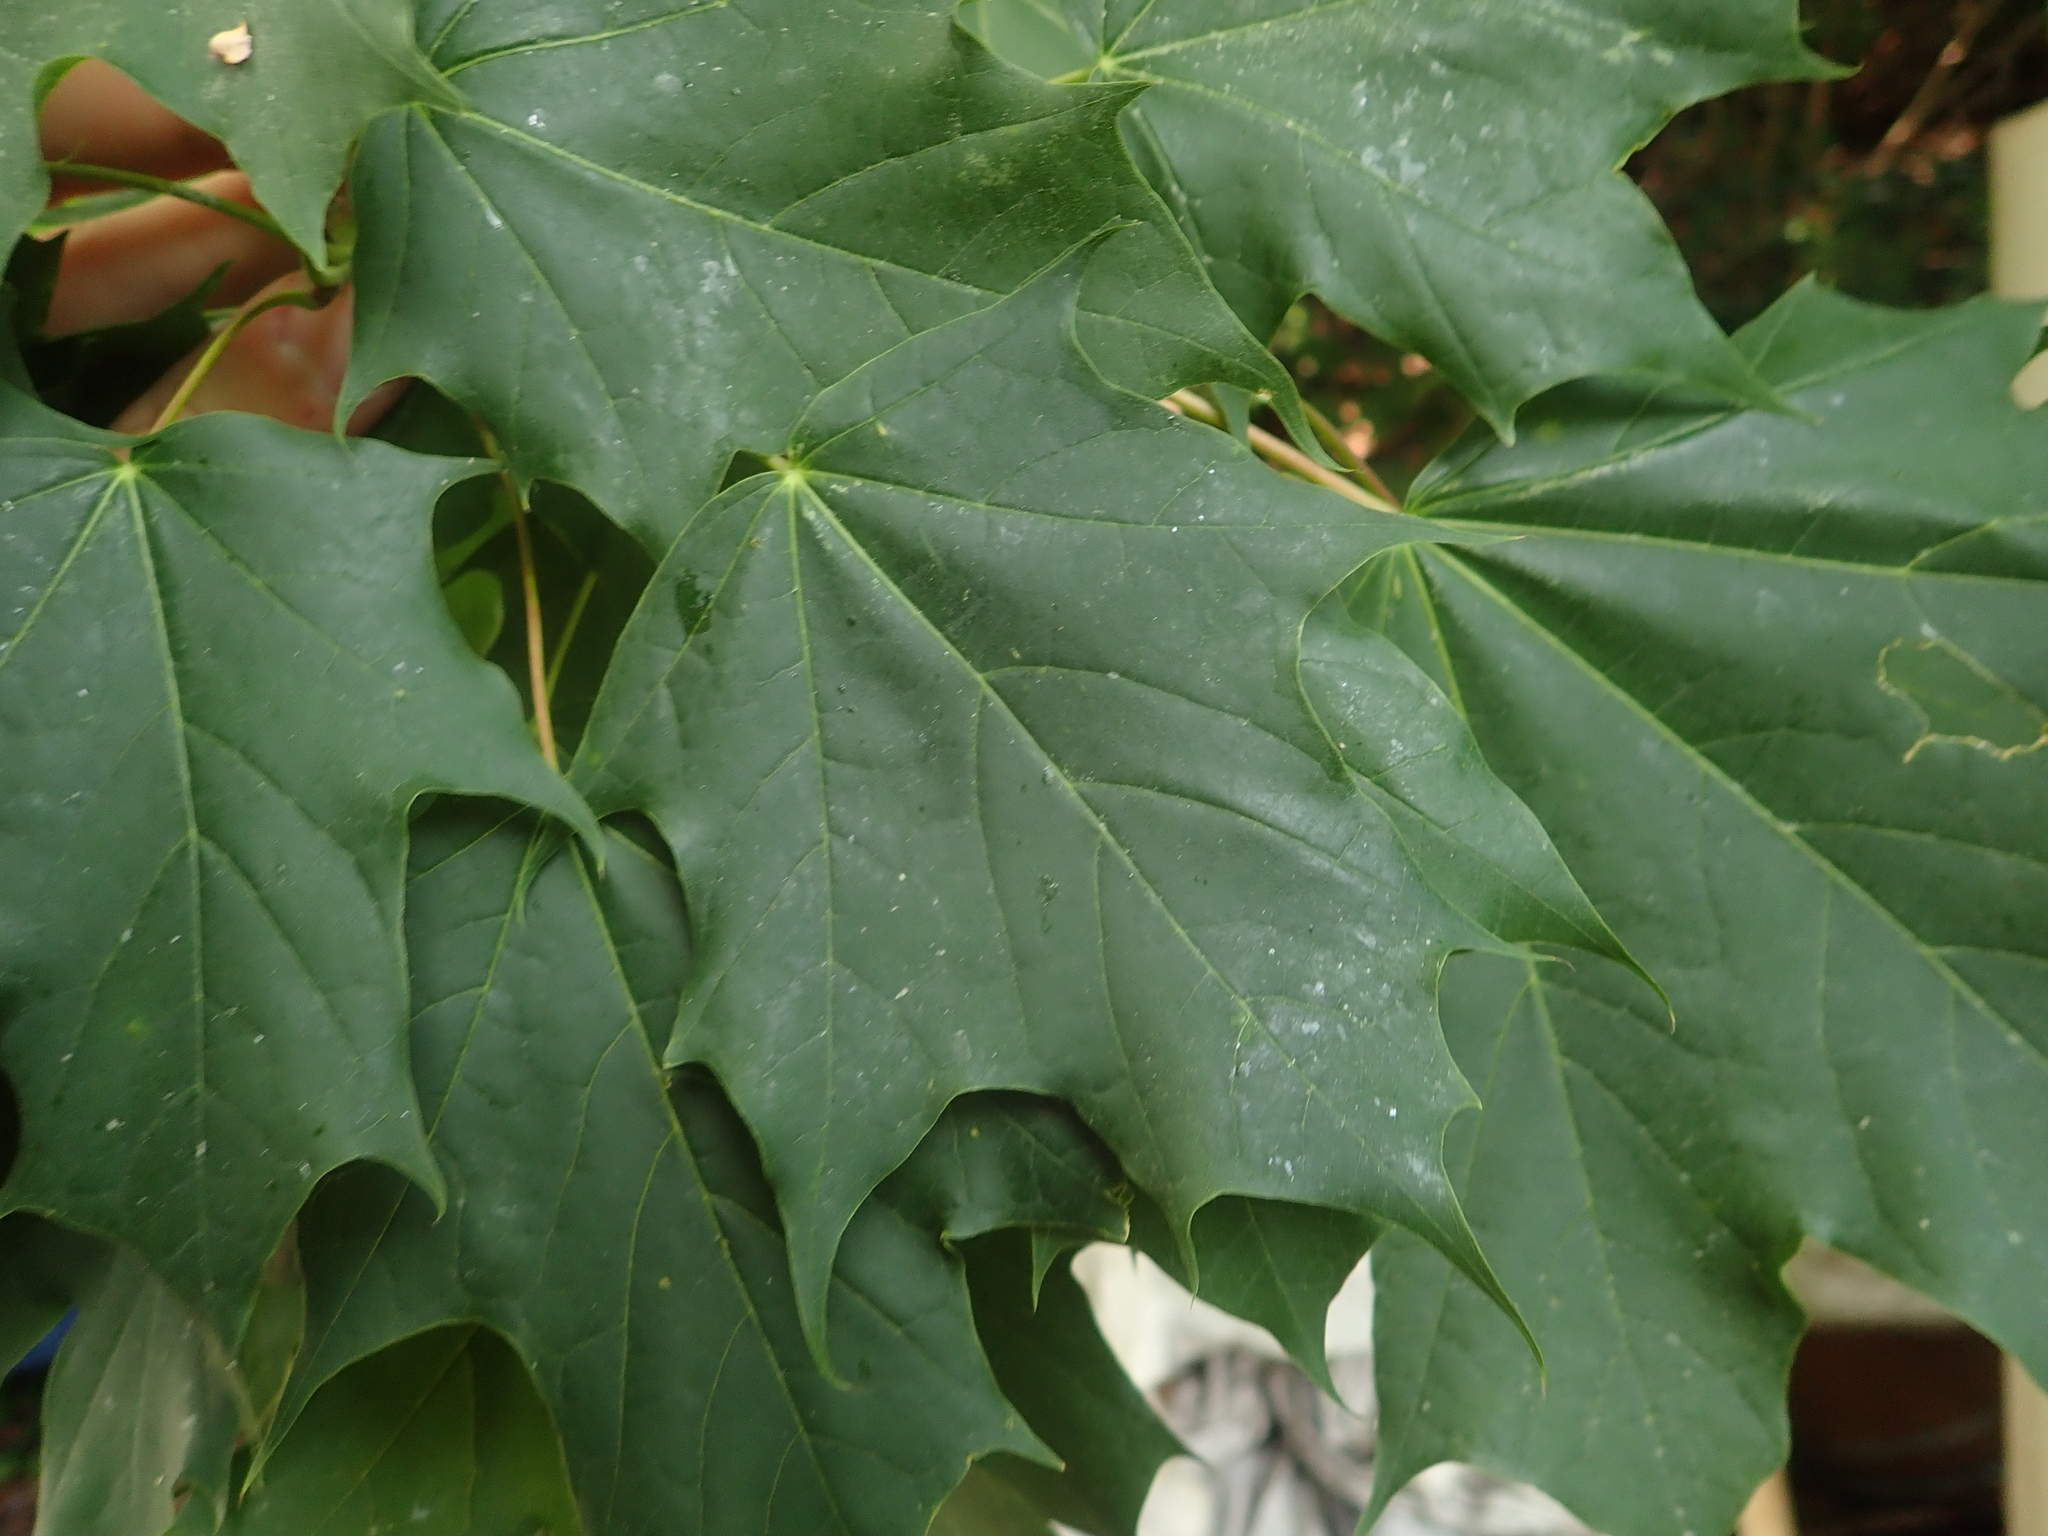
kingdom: Plantae
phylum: Tracheophyta
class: Magnoliopsida
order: Sapindales
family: Sapindaceae
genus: Acer
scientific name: Acer platanoides
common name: Norway maple
